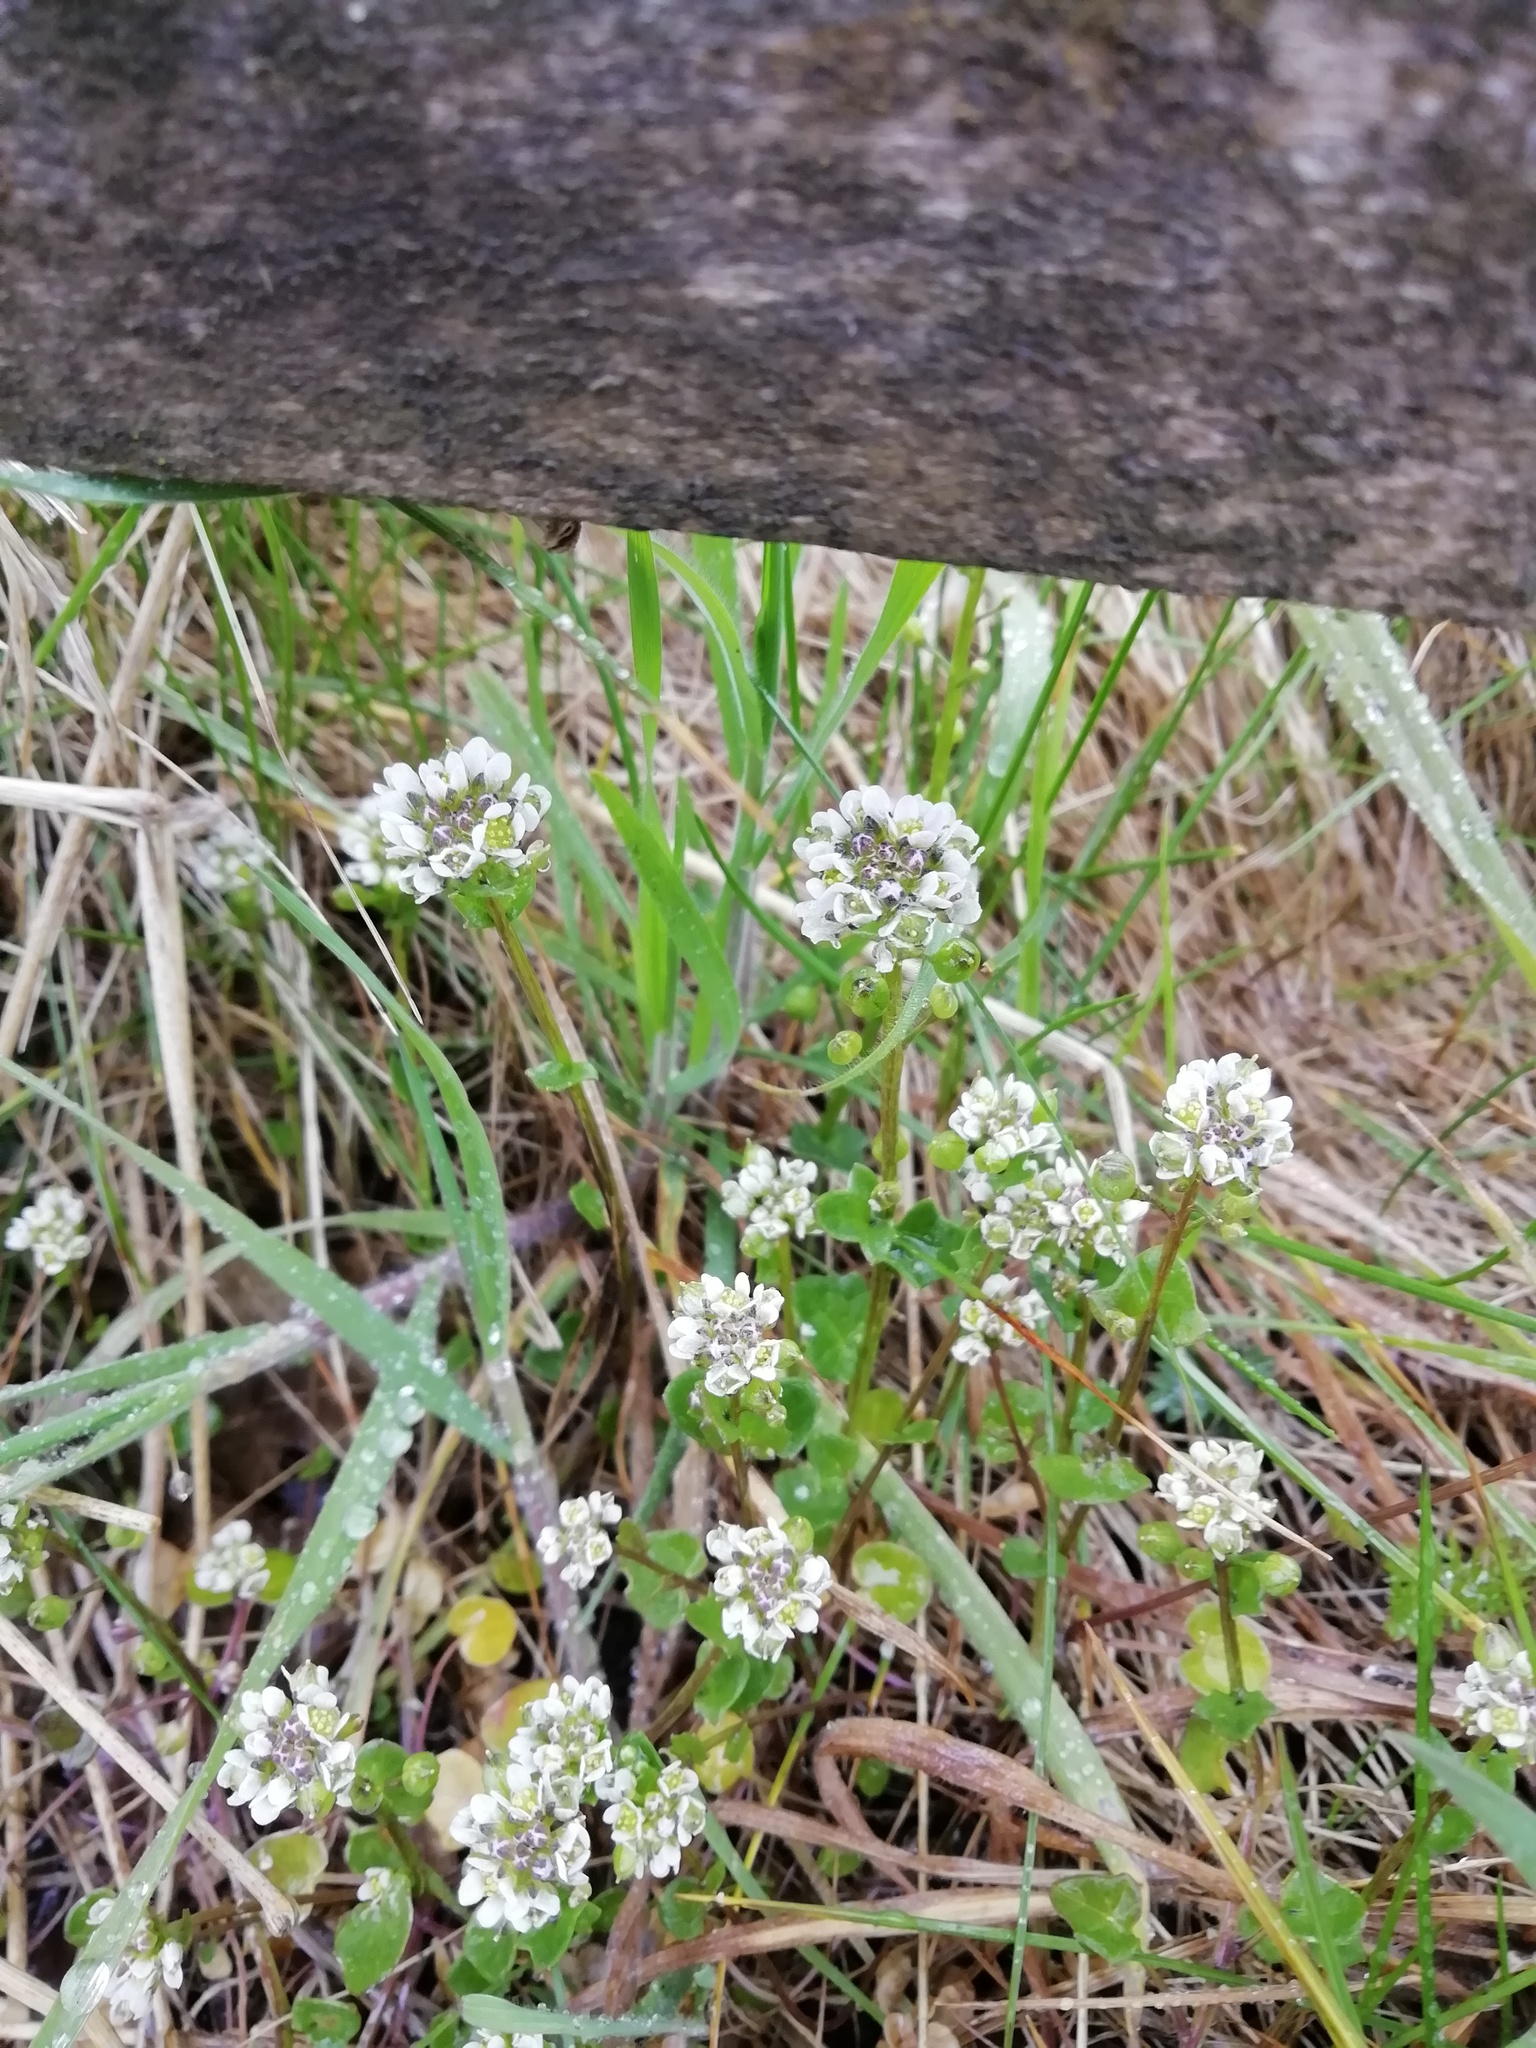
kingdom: Plantae
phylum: Tracheophyta
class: Magnoliopsida
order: Brassicales
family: Brassicaceae
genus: Cochlearia
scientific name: Cochlearia danica
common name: Early scurvygrass
